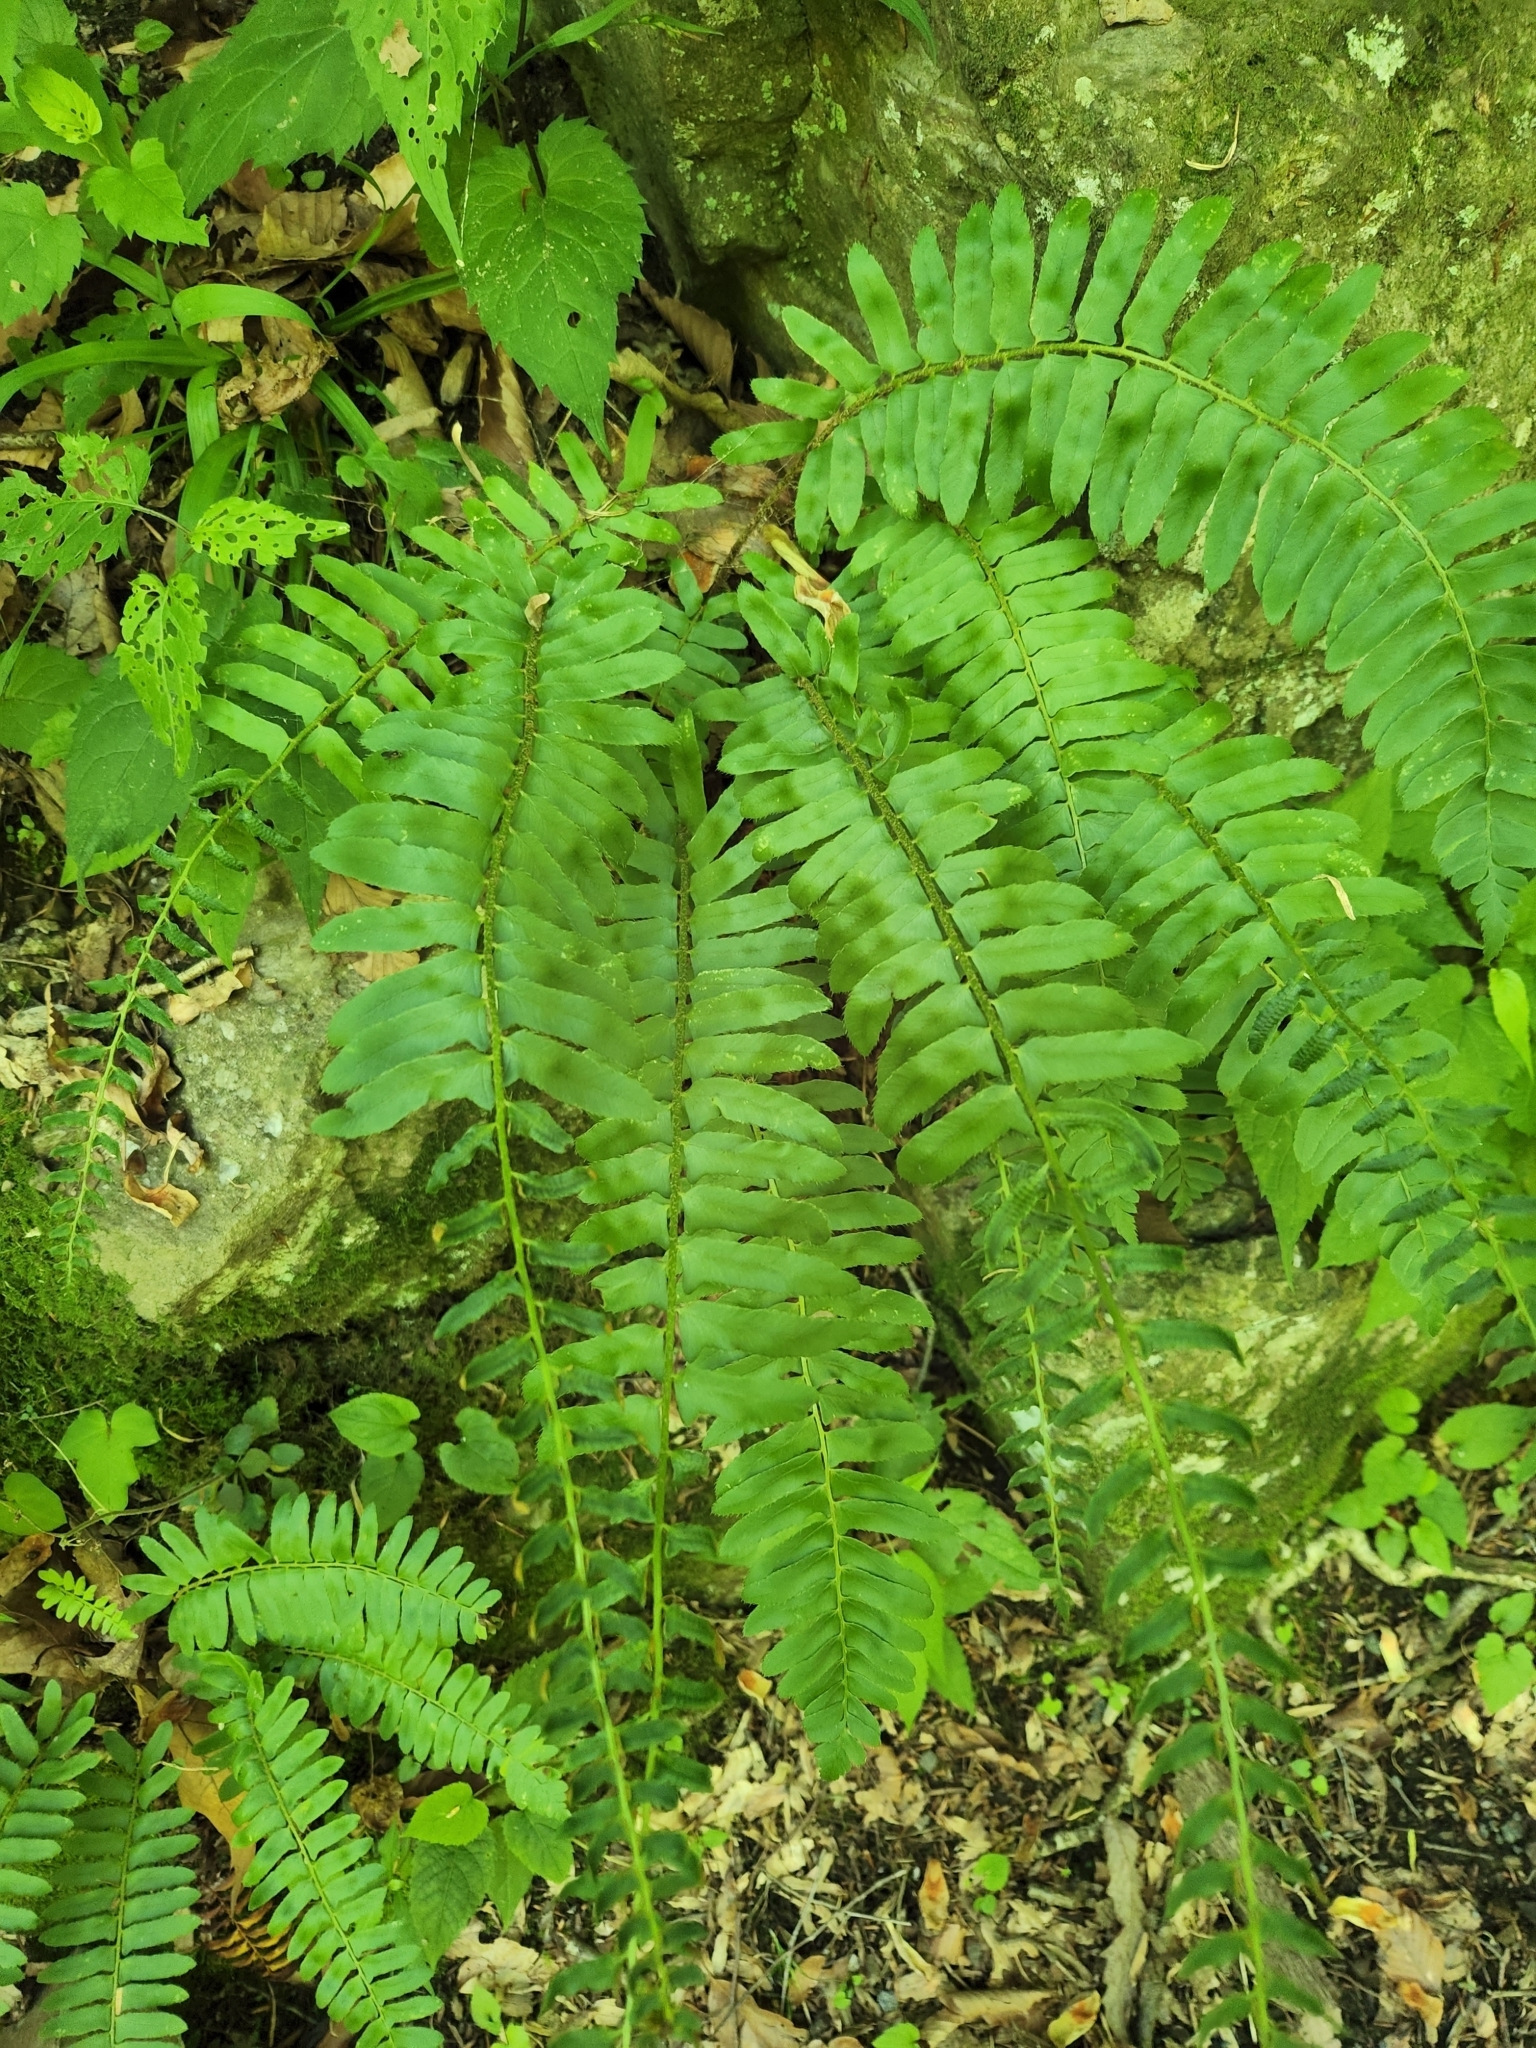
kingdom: Plantae
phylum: Tracheophyta
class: Polypodiopsida
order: Polypodiales
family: Dryopteridaceae
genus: Polystichum
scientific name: Polystichum acrostichoides
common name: Christmas fern
